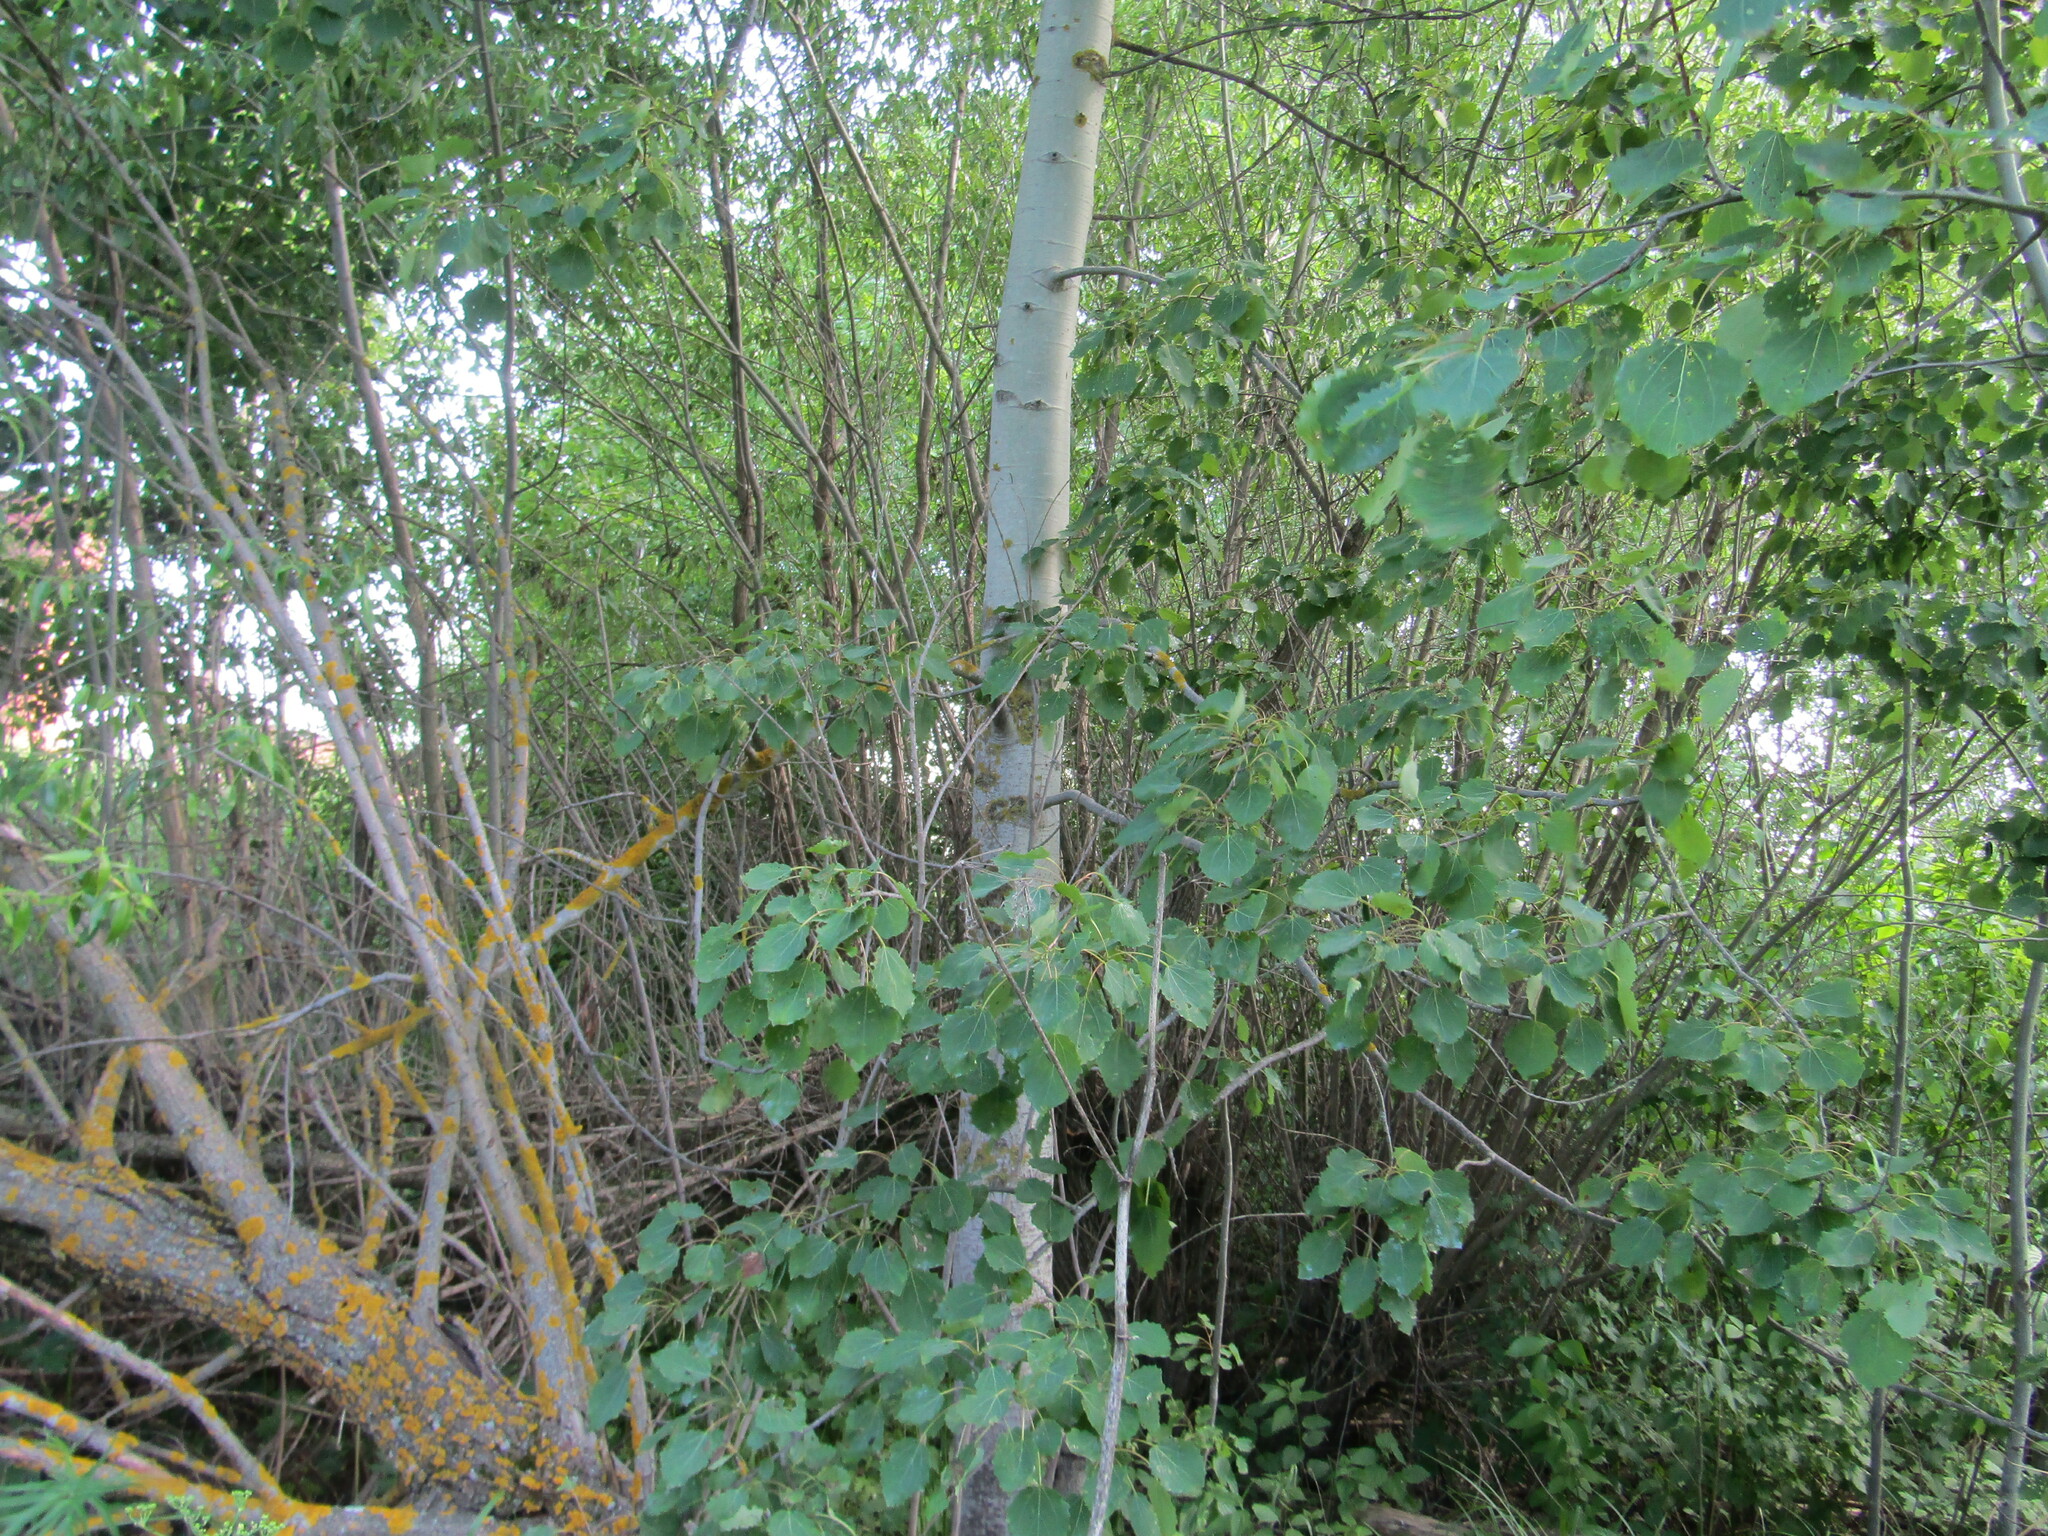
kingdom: Plantae
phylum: Tracheophyta
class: Magnoliopsida
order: Malpighiales
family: Salicaceae
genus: Populus
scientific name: Populus tremula
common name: European aspen
